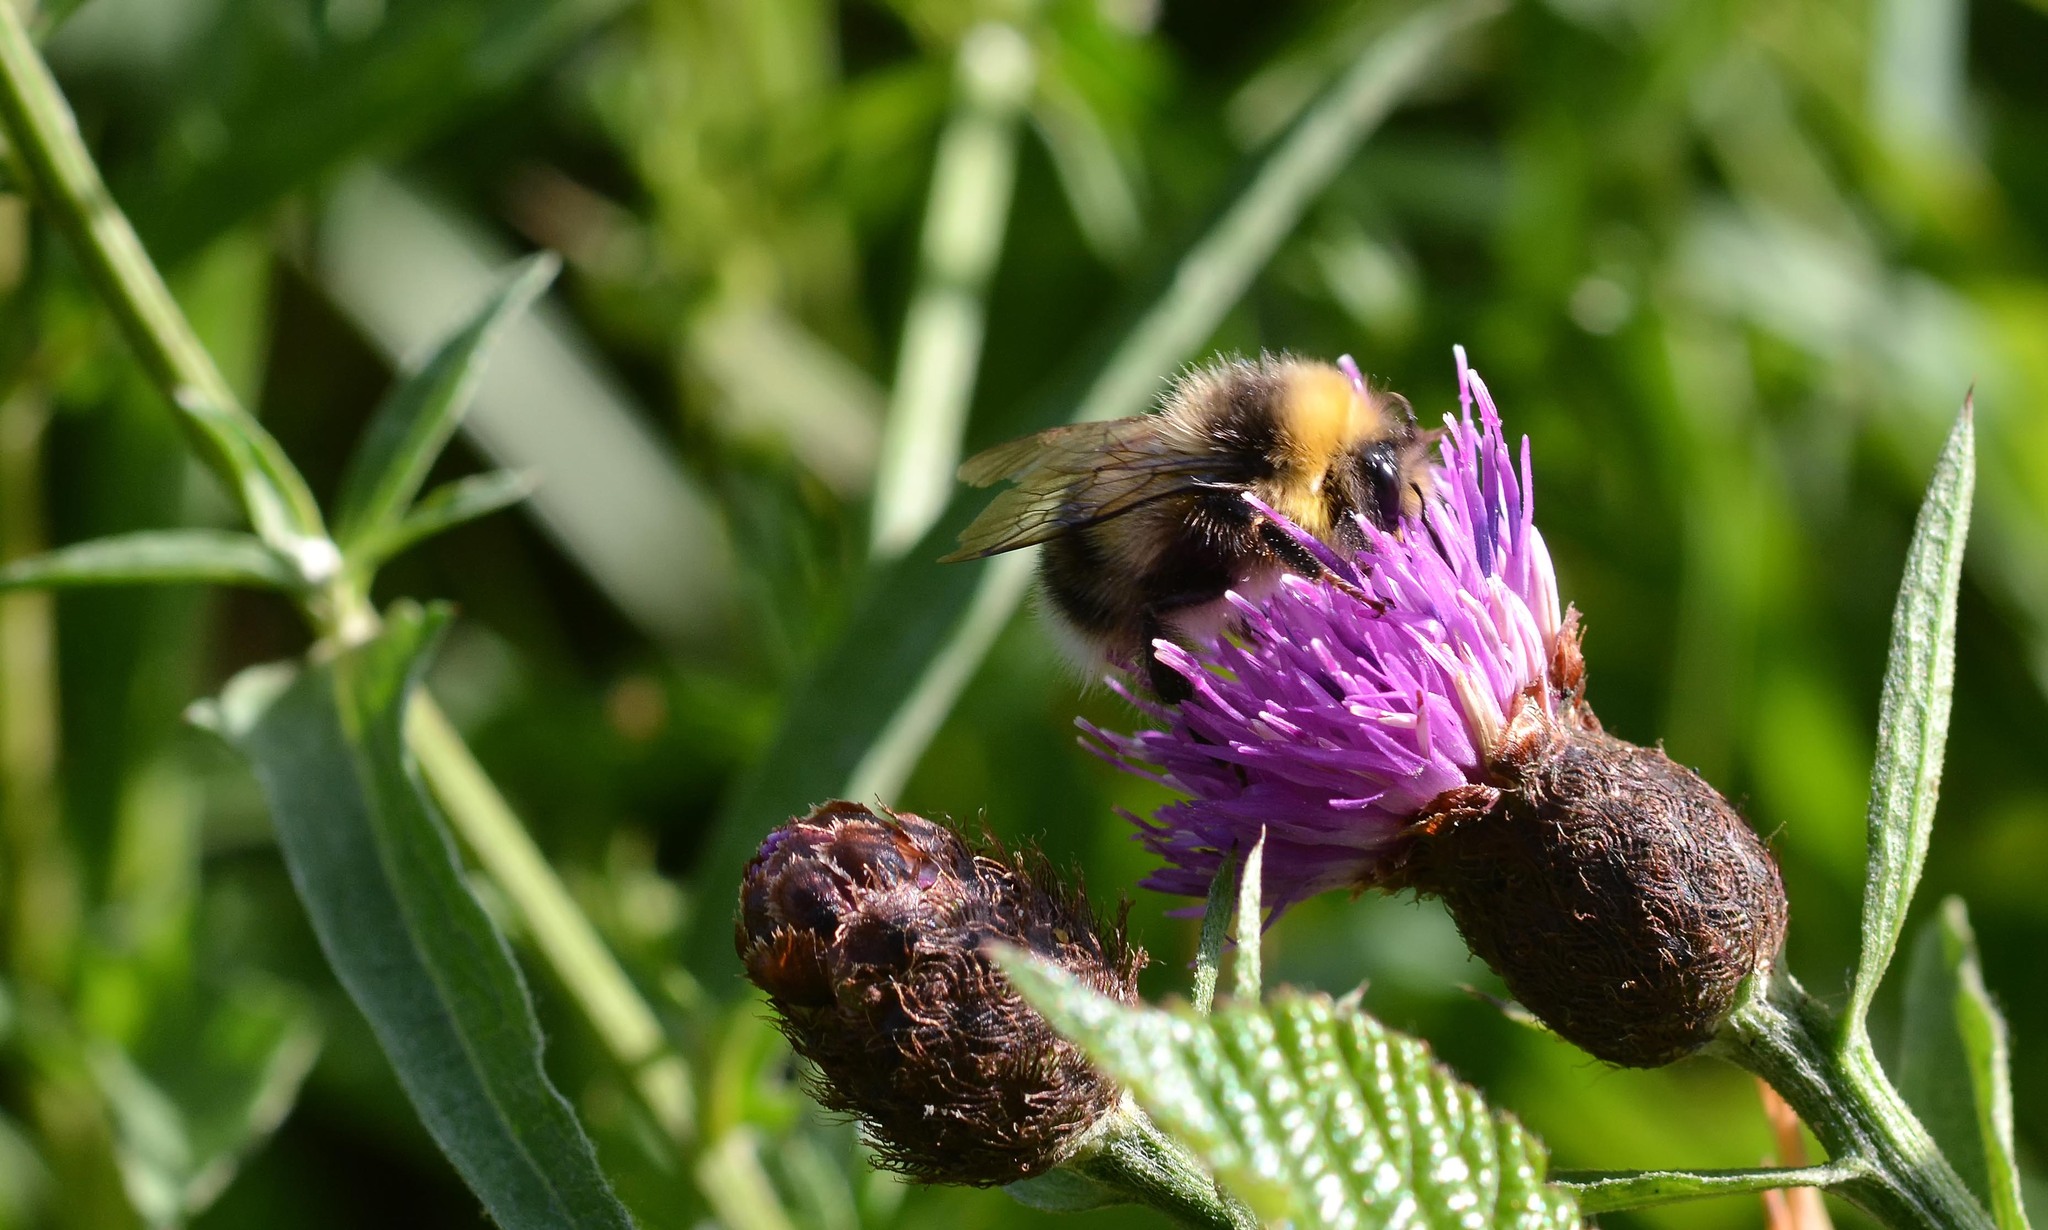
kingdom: Animalia
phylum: Arthropoda
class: Insecta
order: Hymenoptera
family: Apidae
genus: Bombus
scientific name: Bombus lucorum
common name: White-tailed bumblebee
